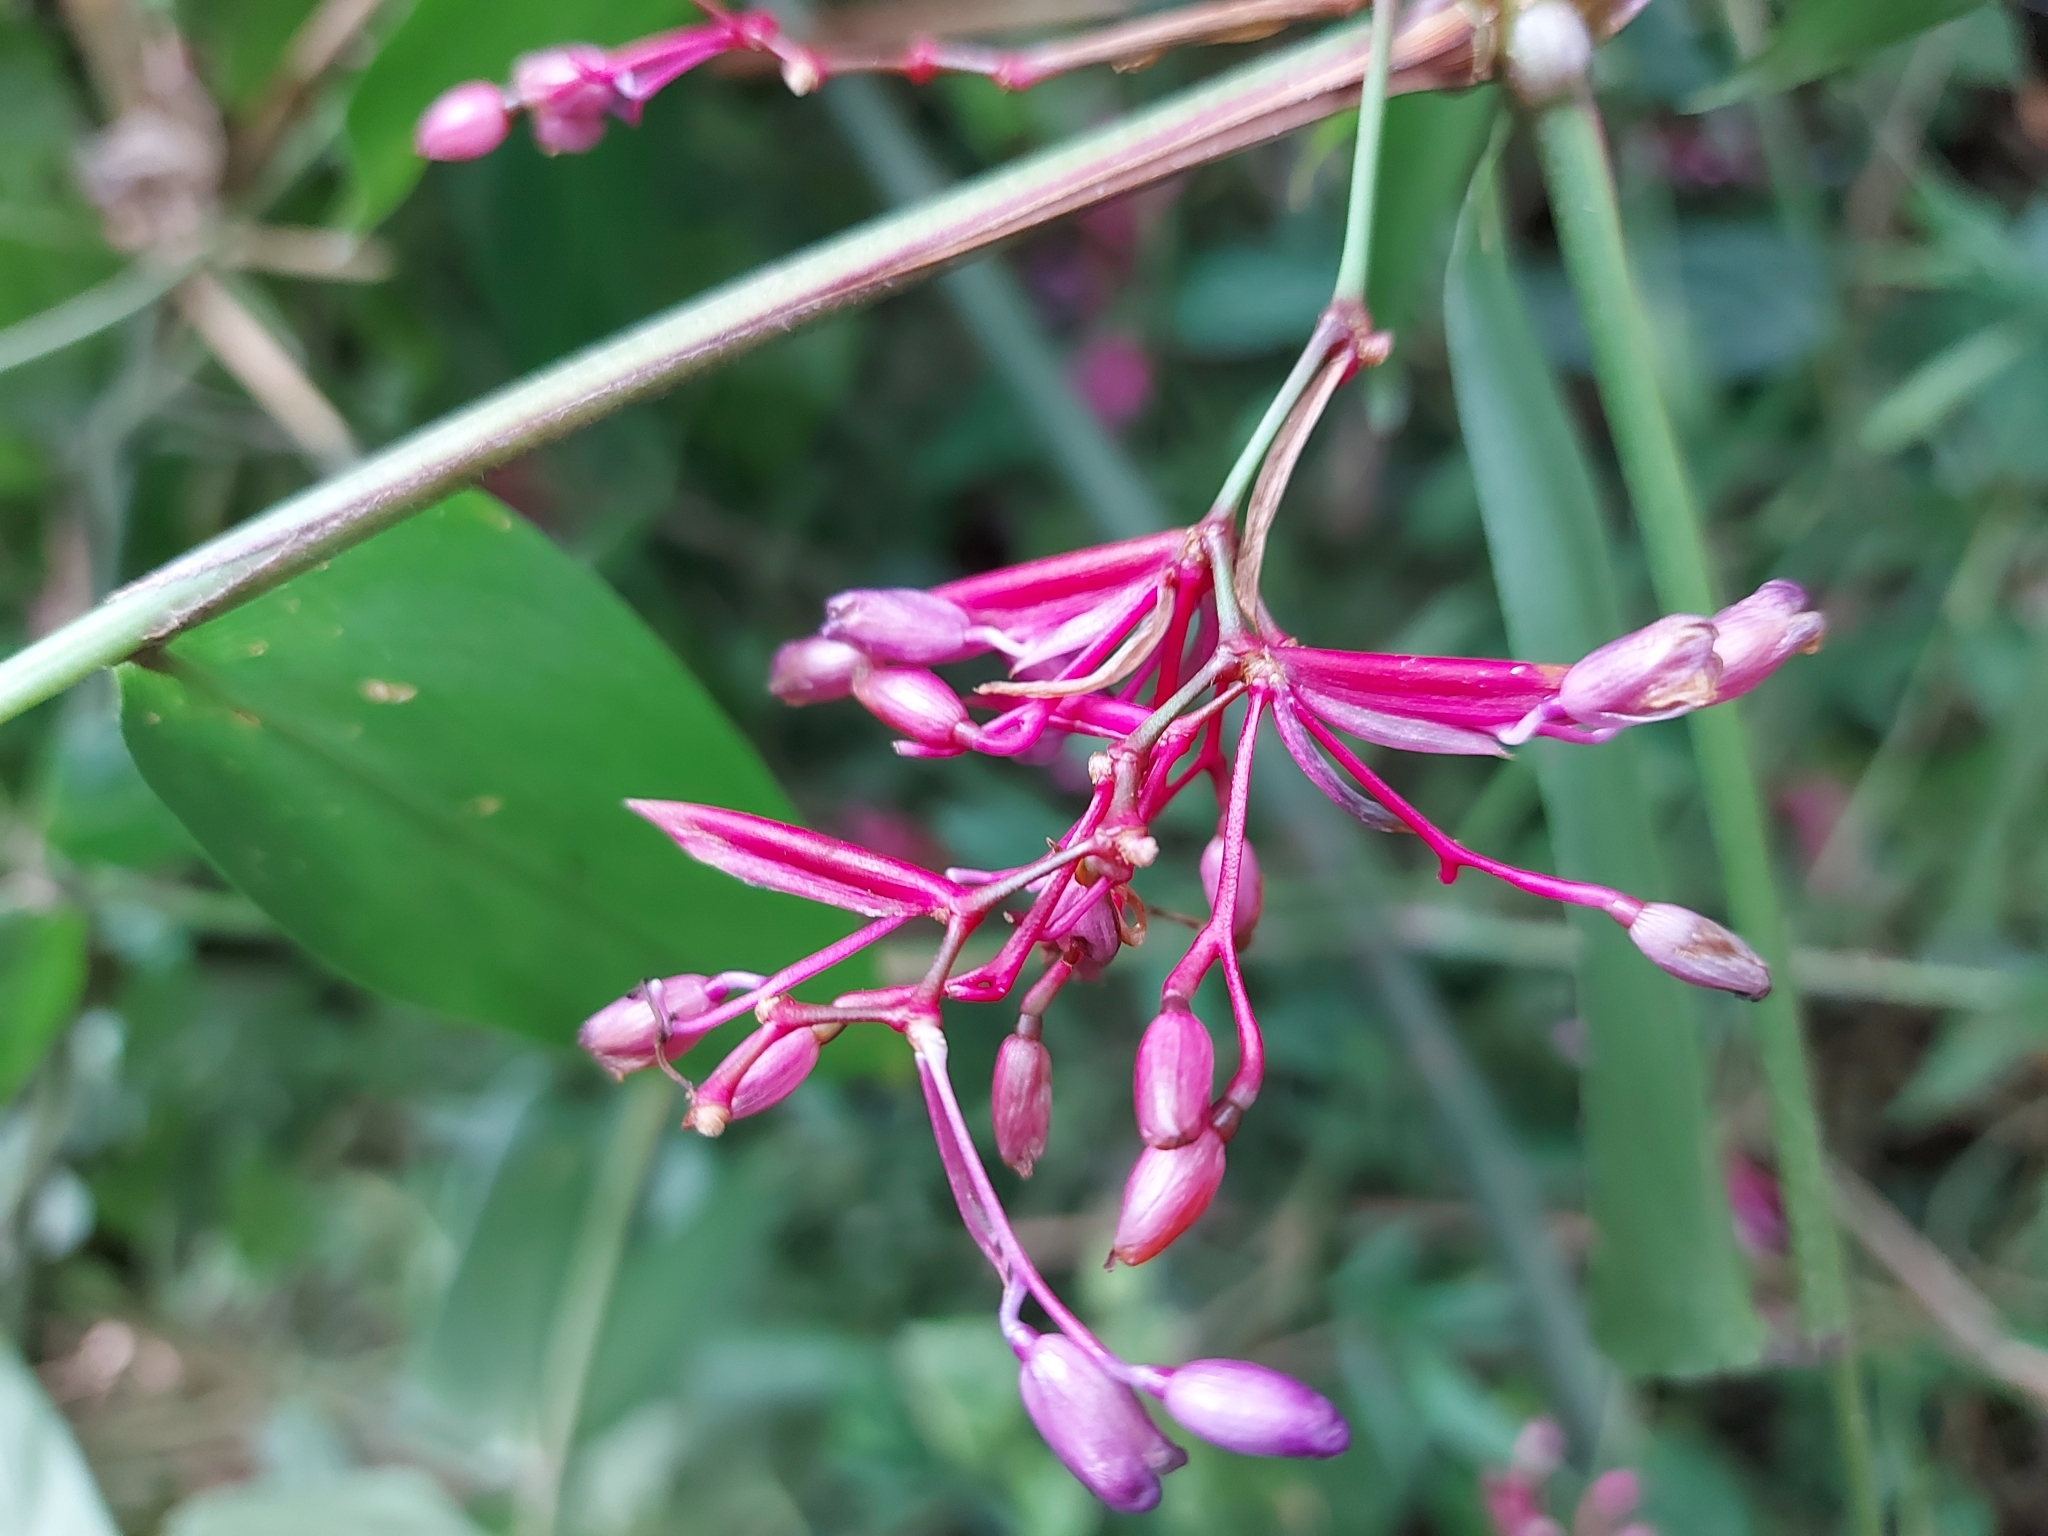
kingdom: Plantae
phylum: Tracheophyta
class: Liliopsida
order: Zingiberales
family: Marantaceae
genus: Stromanthe
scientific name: Stromanthe porteana
